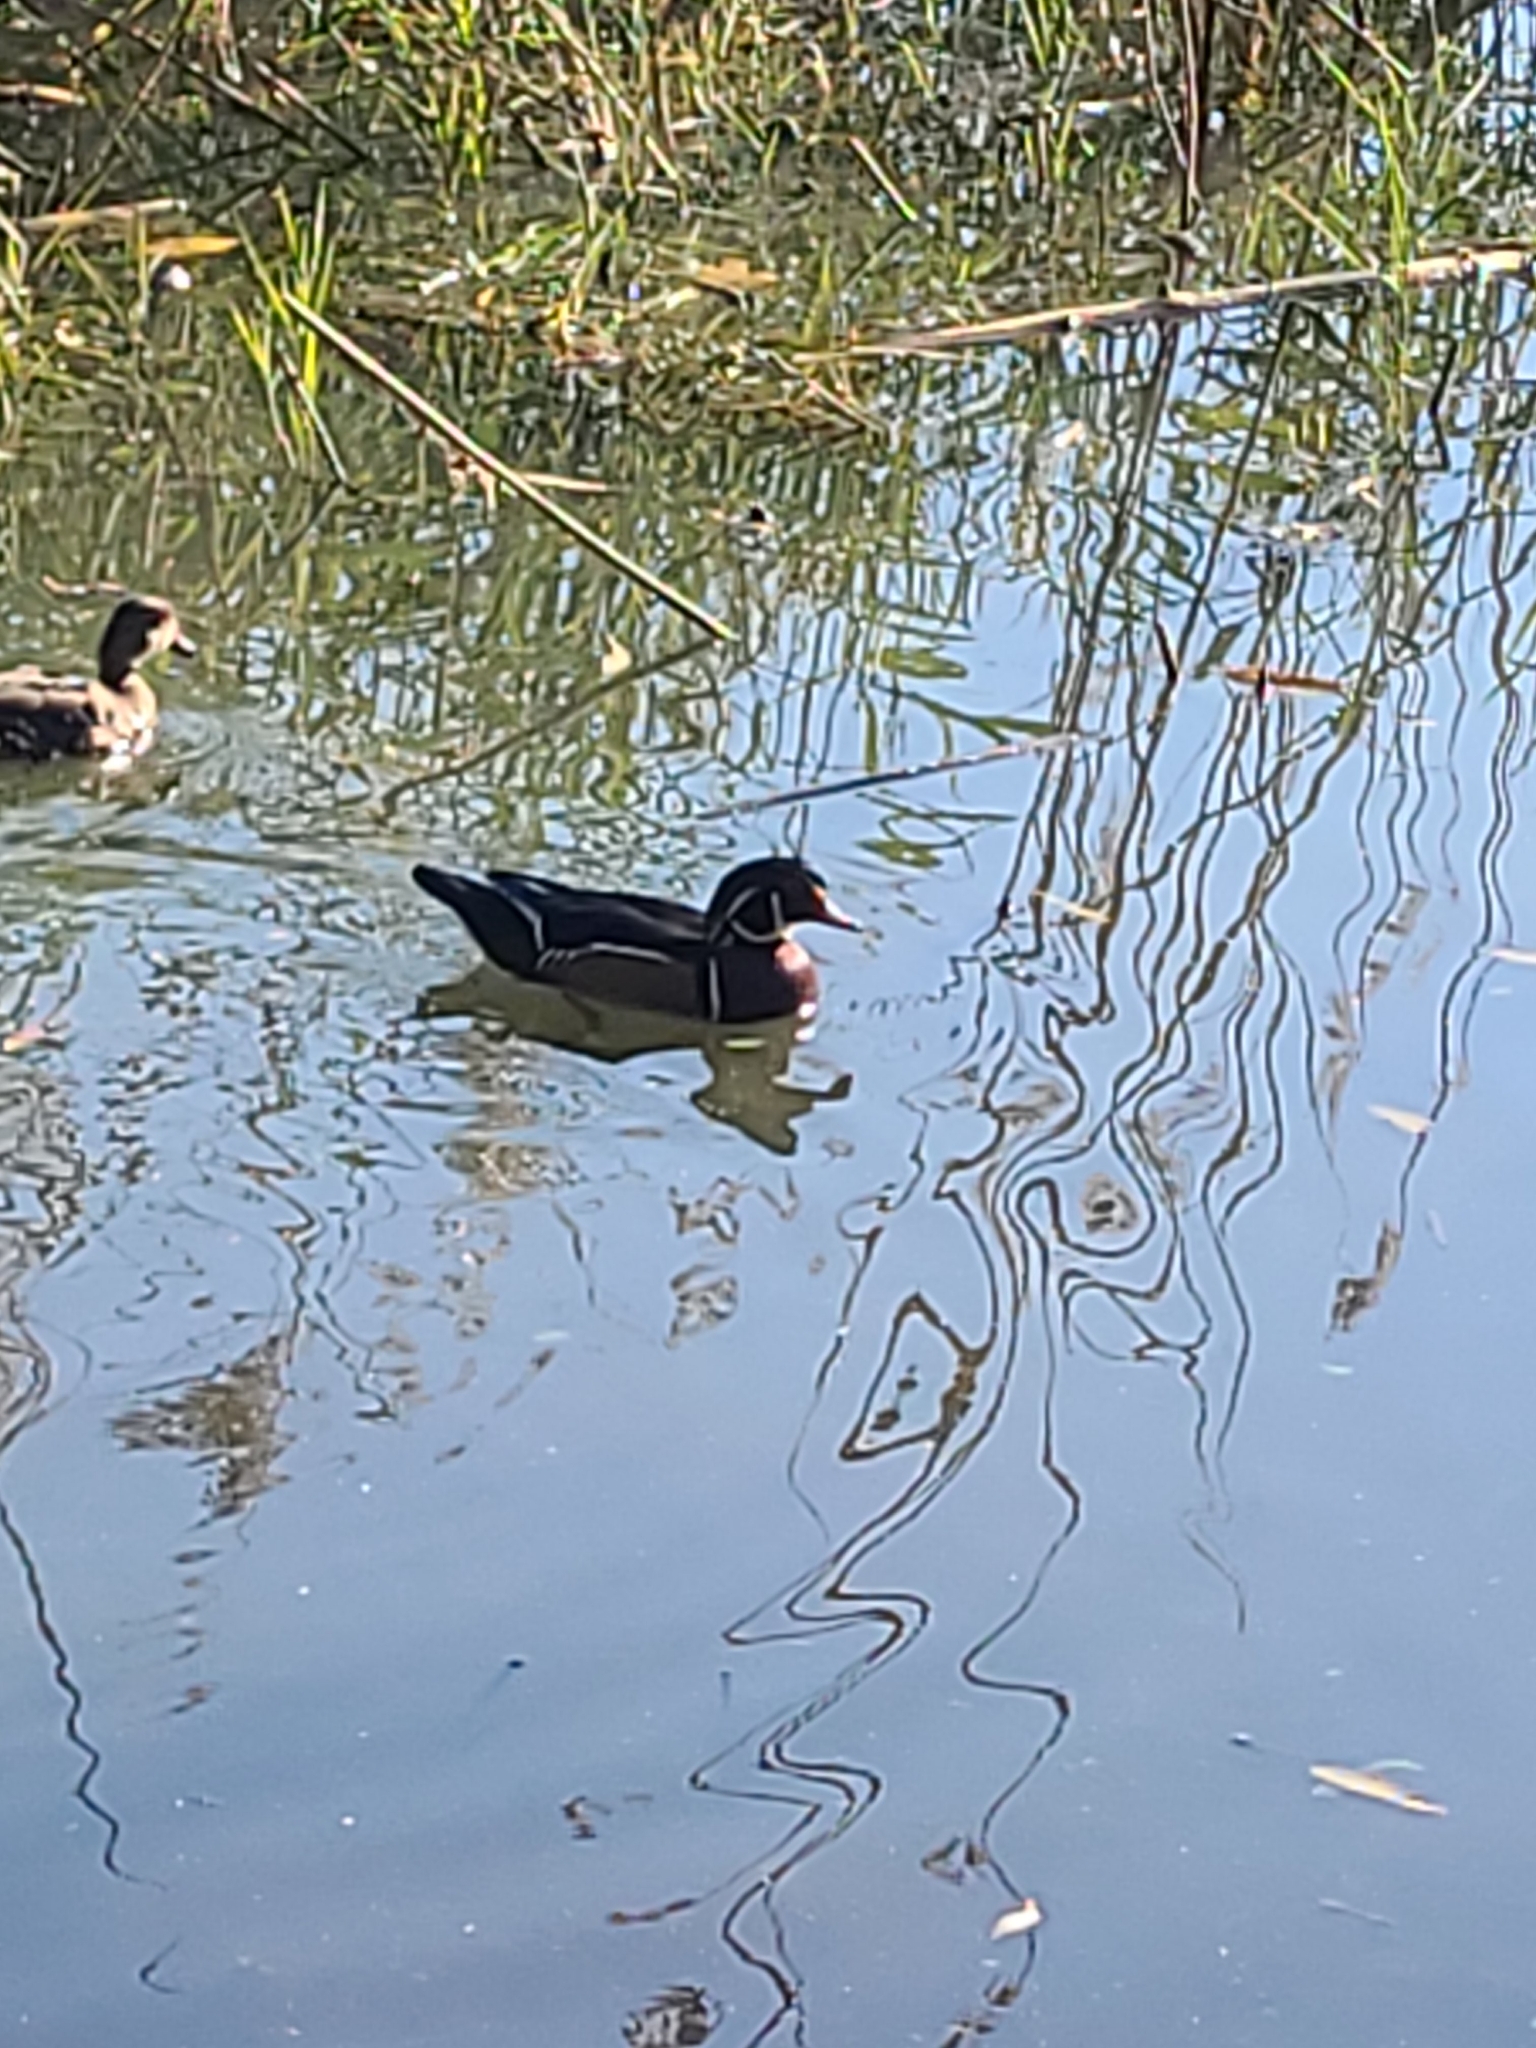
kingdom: Animalia
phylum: Chordata
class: Aves
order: Anseriformes
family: Anatidae
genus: Aix
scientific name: Aix sponsa
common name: Wood duck
